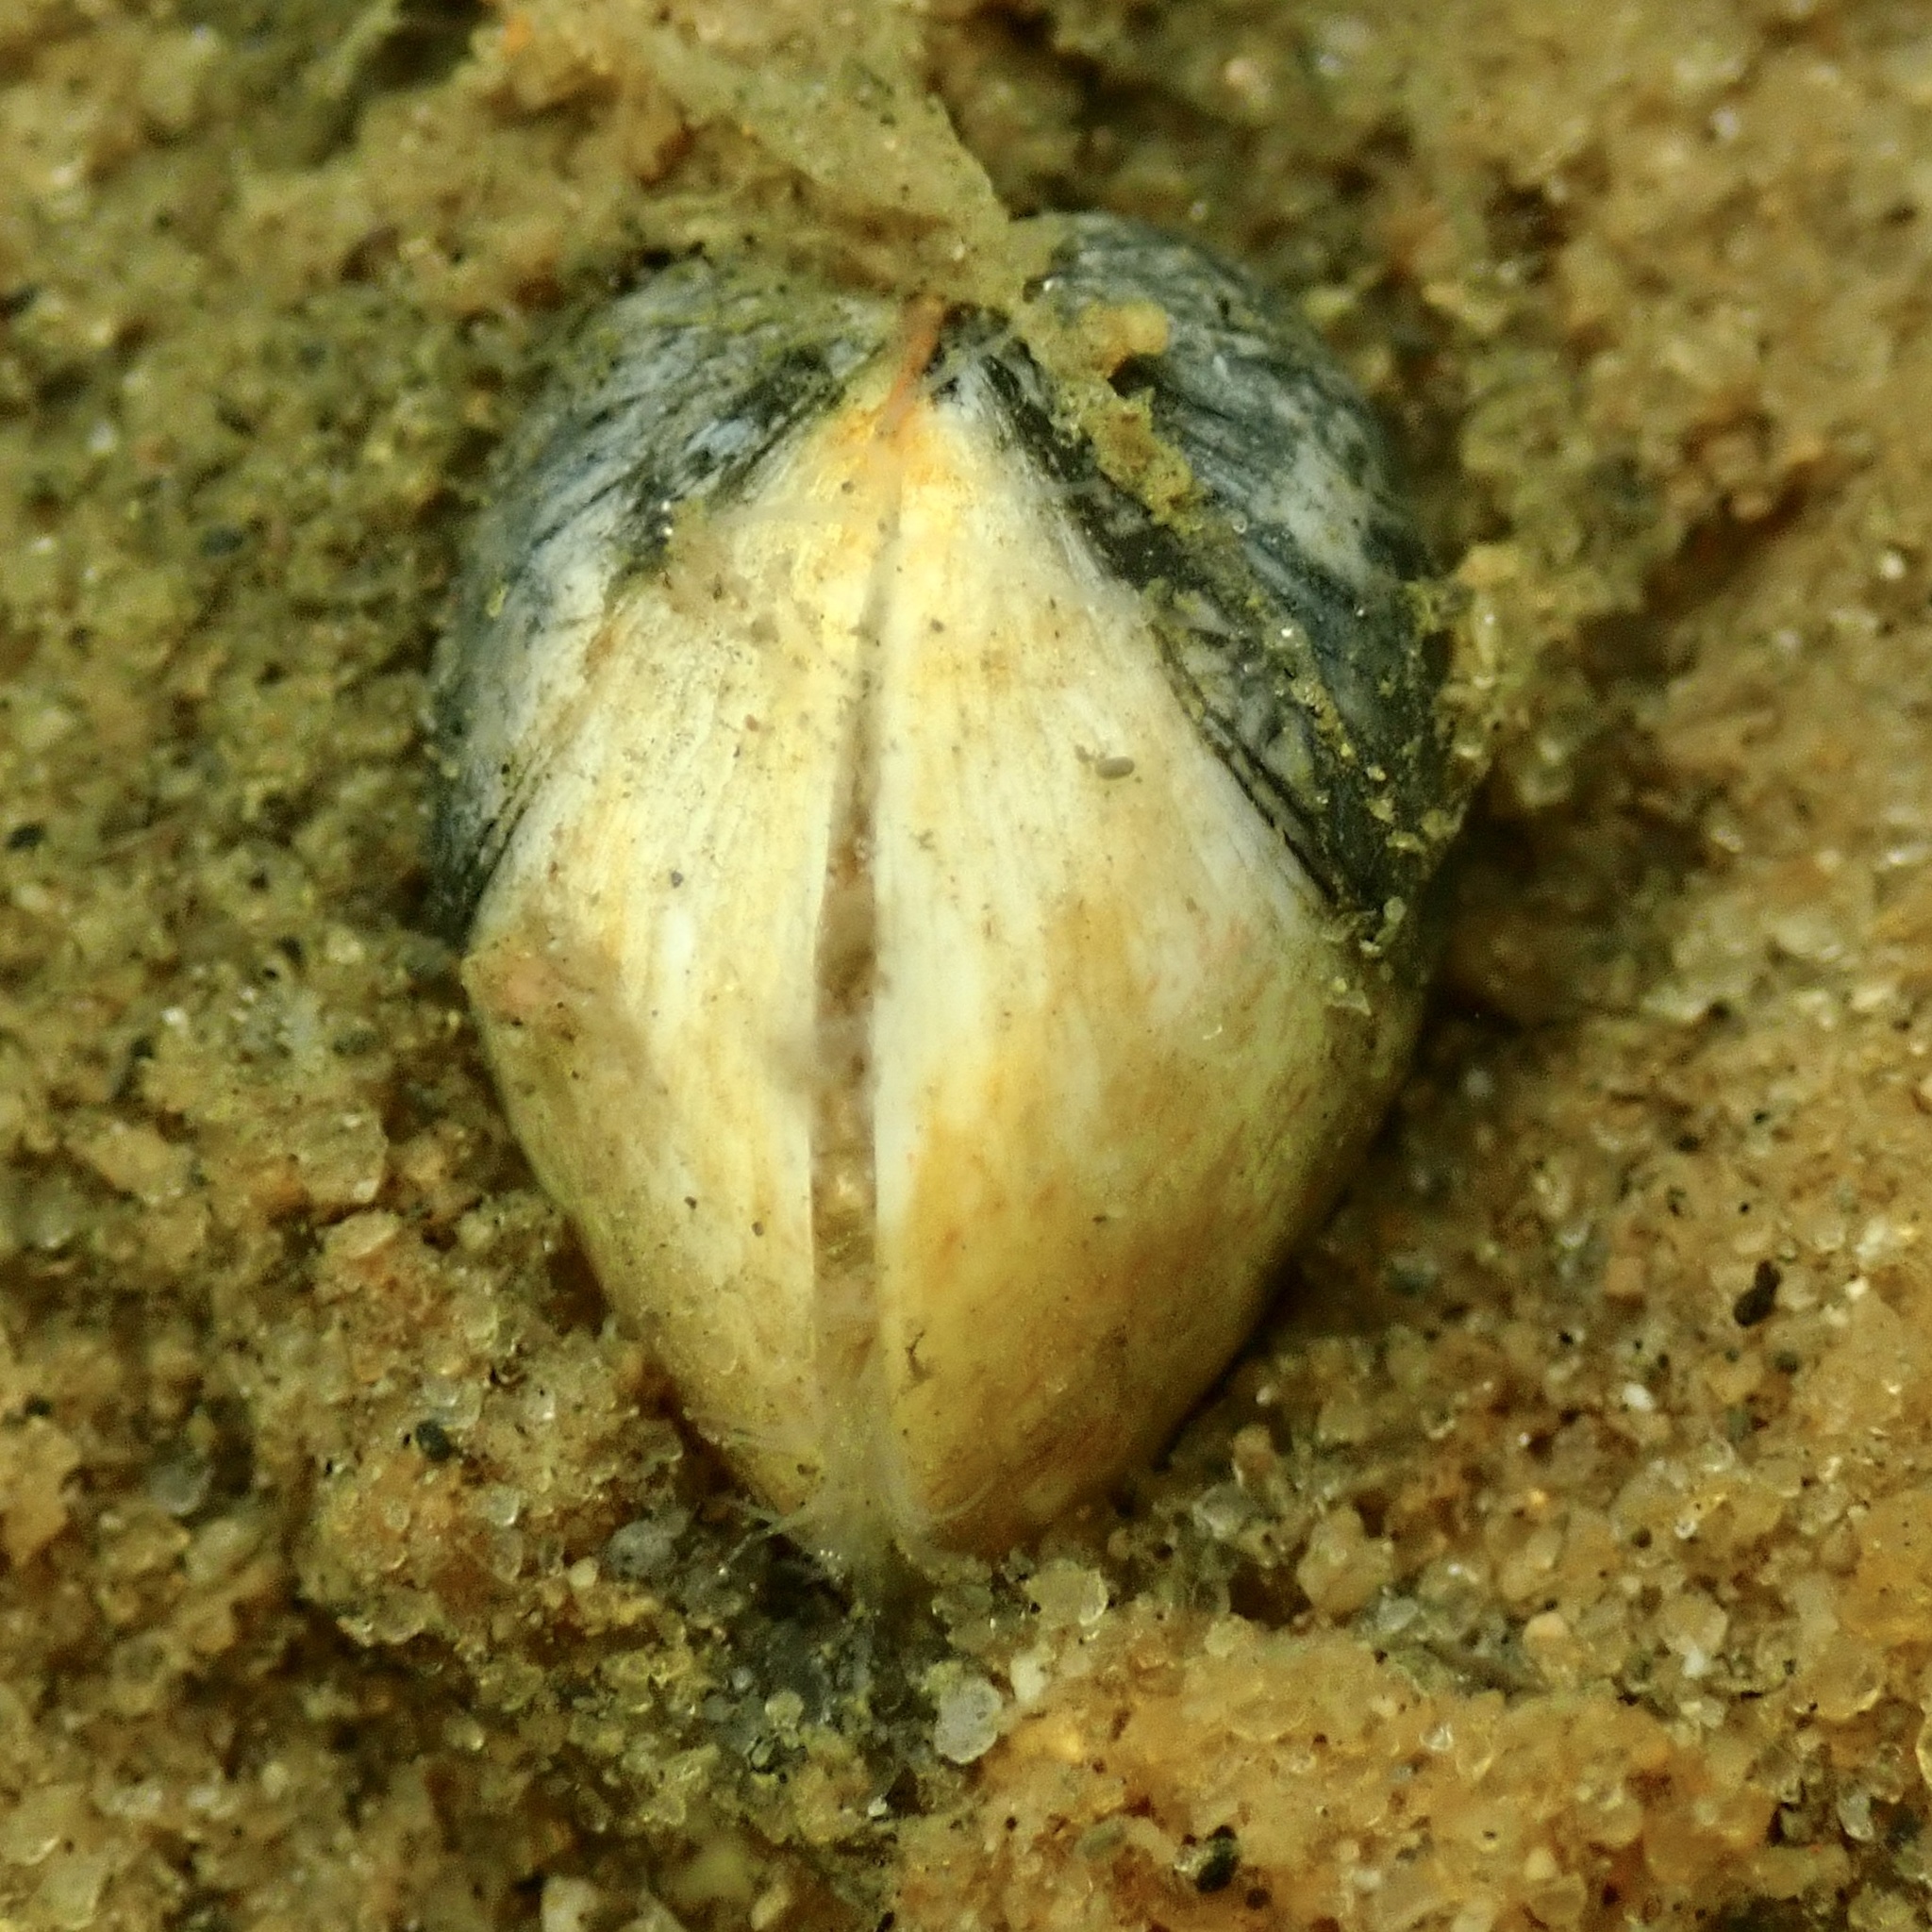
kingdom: Animalia
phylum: Mollusca
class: Bivalvia
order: Cardiida
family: Cardiidae
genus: Laevicardium
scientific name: Laevicardium mortoni
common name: Morton eggcockle
